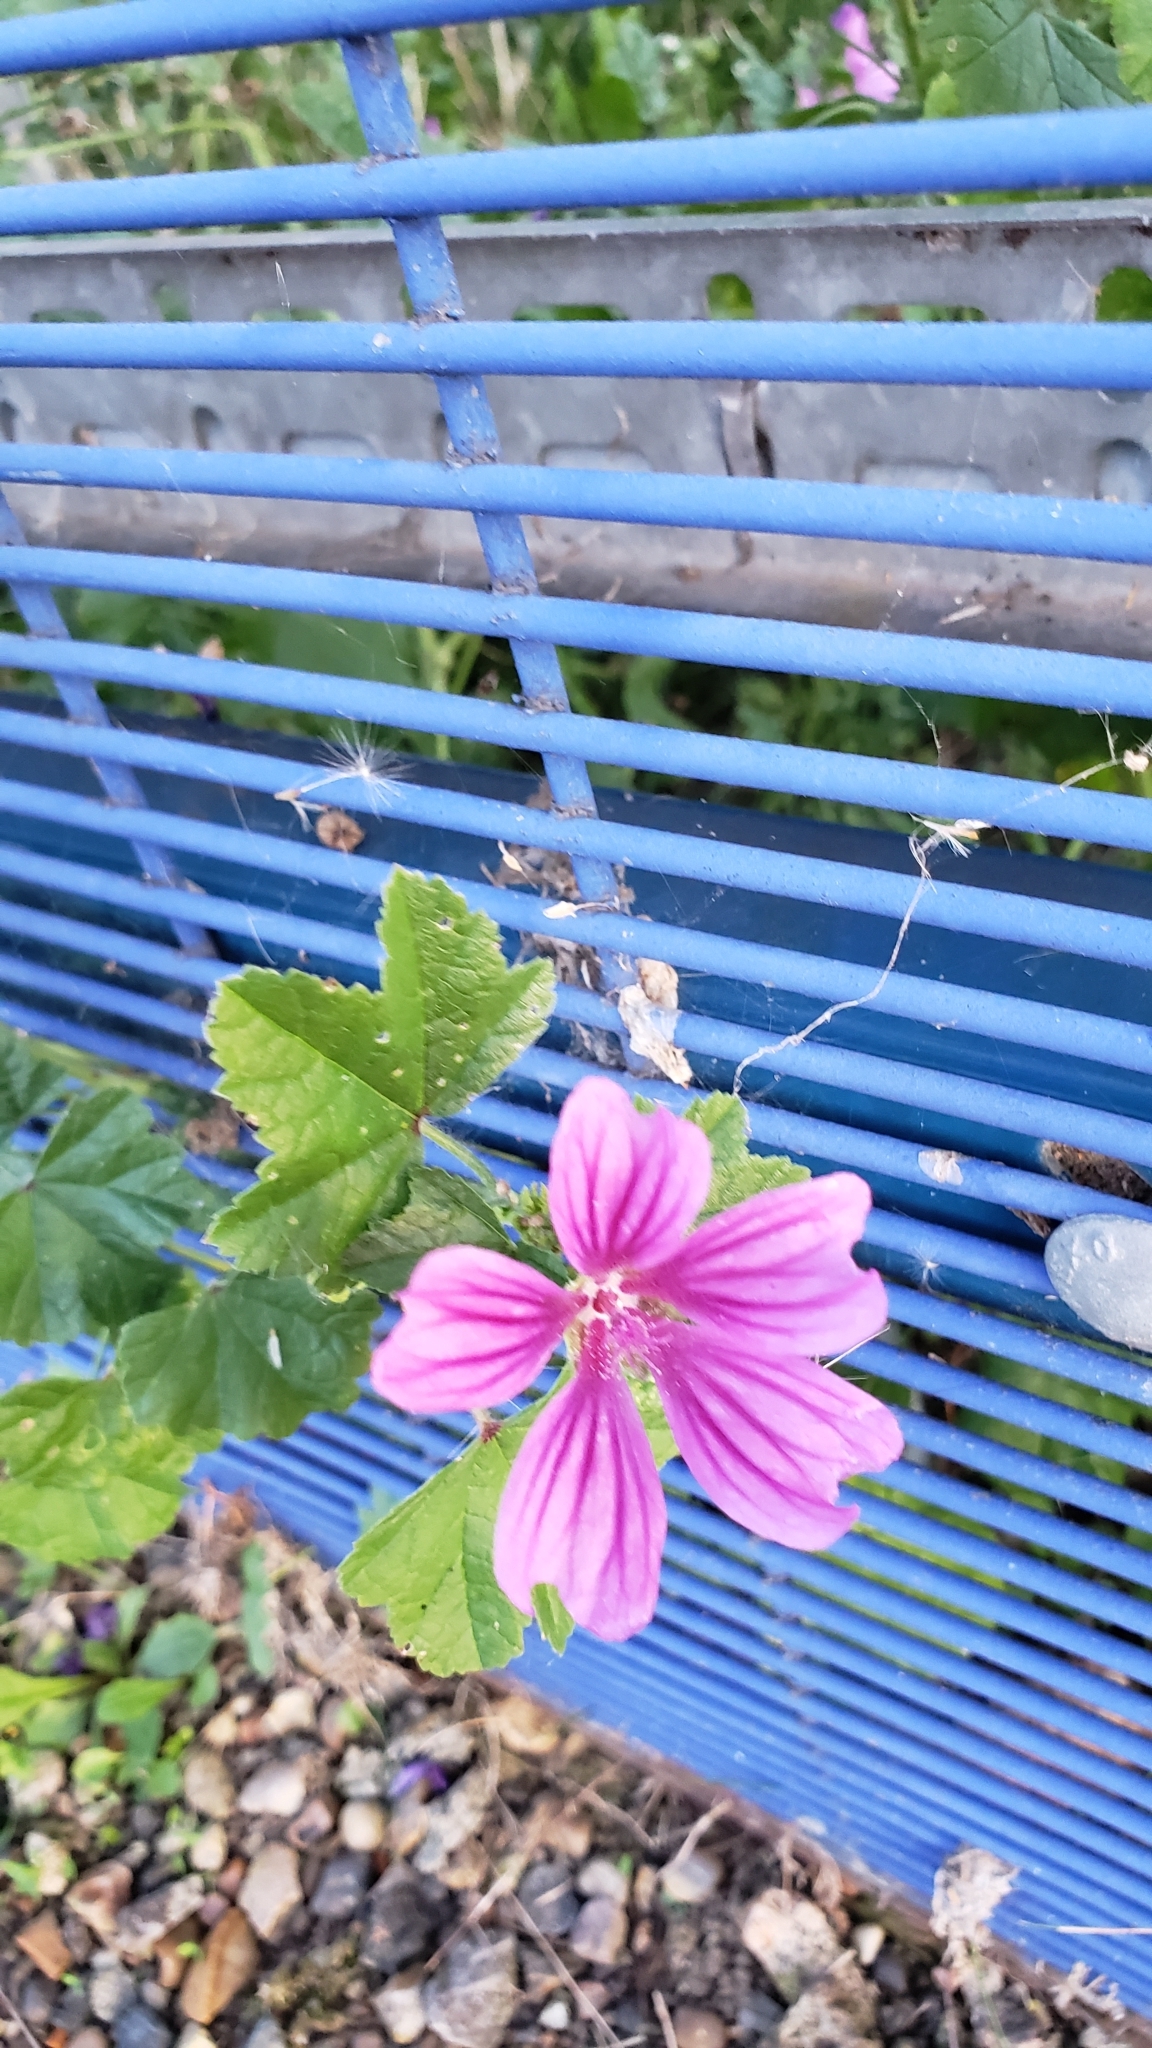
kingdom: Plantae
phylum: Tracheophyta
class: Magnoliopsida
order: Malvales
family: Malvaceae
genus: Malva
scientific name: Malva sylvestris
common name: Common mallow
